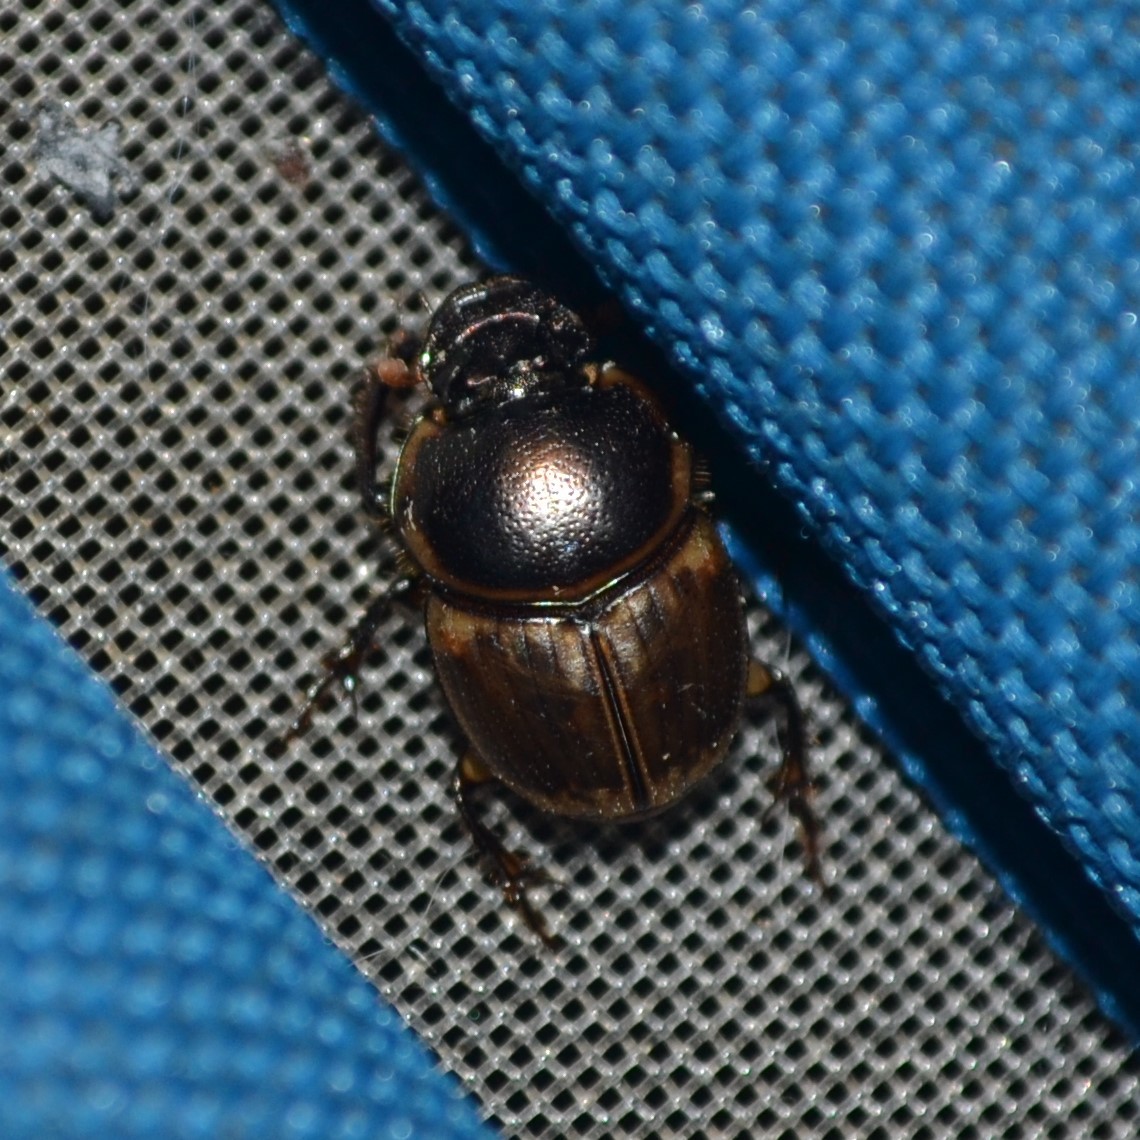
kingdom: Animalia
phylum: Arthropoda
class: Insecta
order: Coleoptera
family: Scarabaeidae
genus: Digitonthophagus
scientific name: Digitonthophagus gazella
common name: Brown dung beetle
